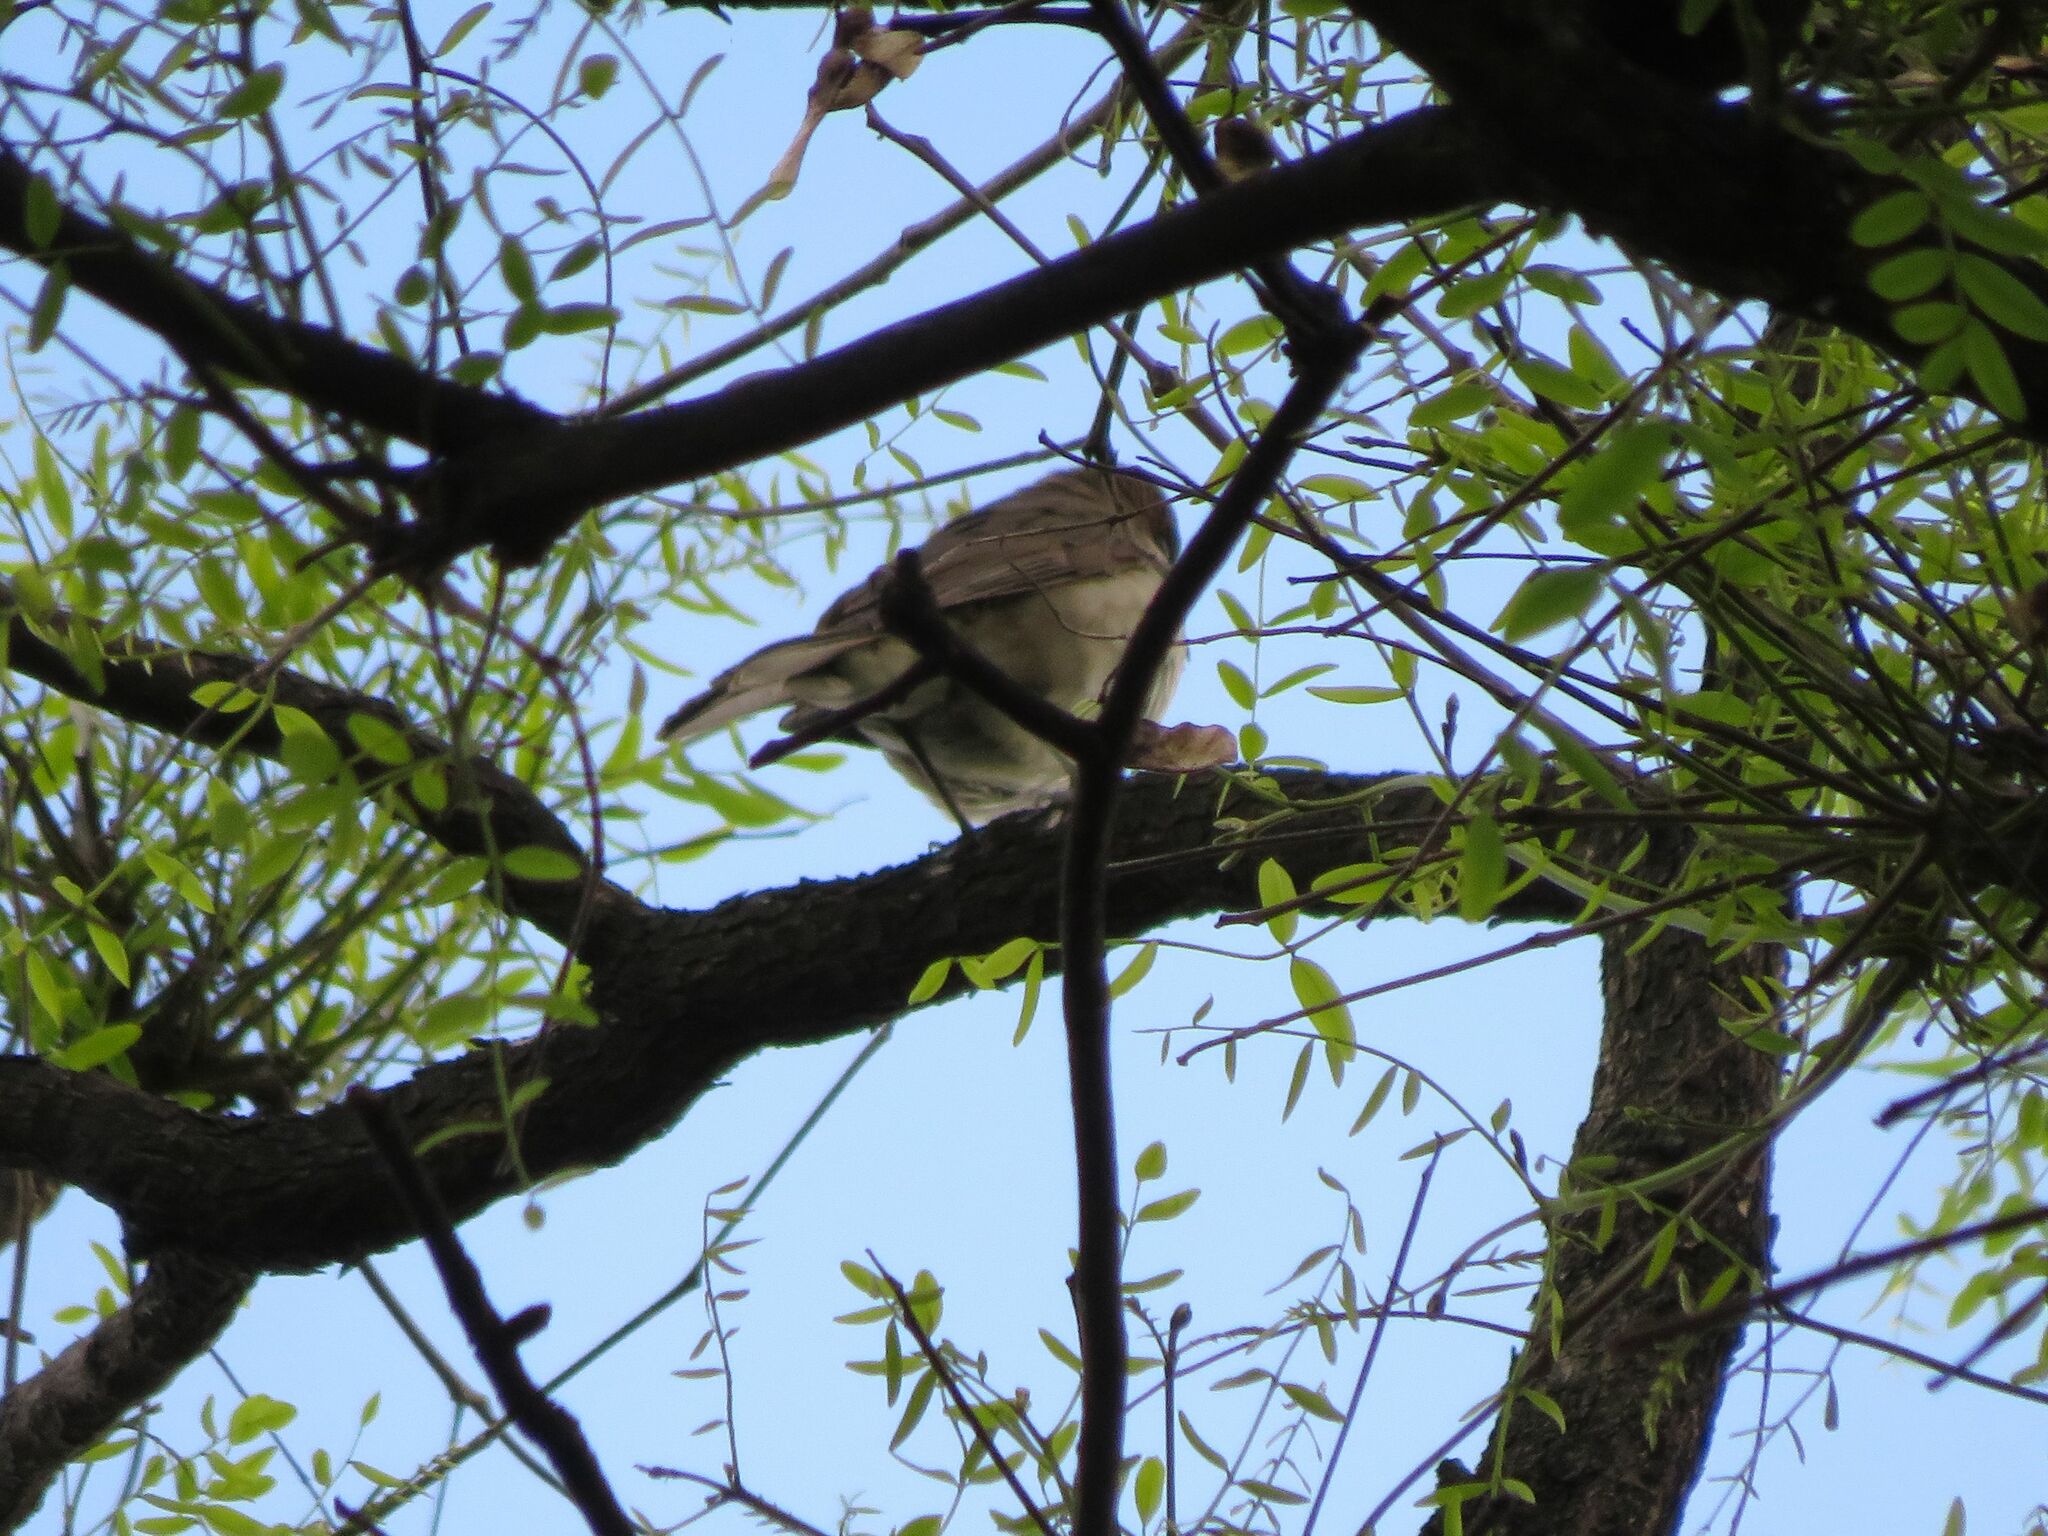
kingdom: Animalia
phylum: Chordata
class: Aves
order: Passeriformes
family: Turdidae
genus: Turdus
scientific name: Turdus amaurochalinus
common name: Creamy-bellied thrush
